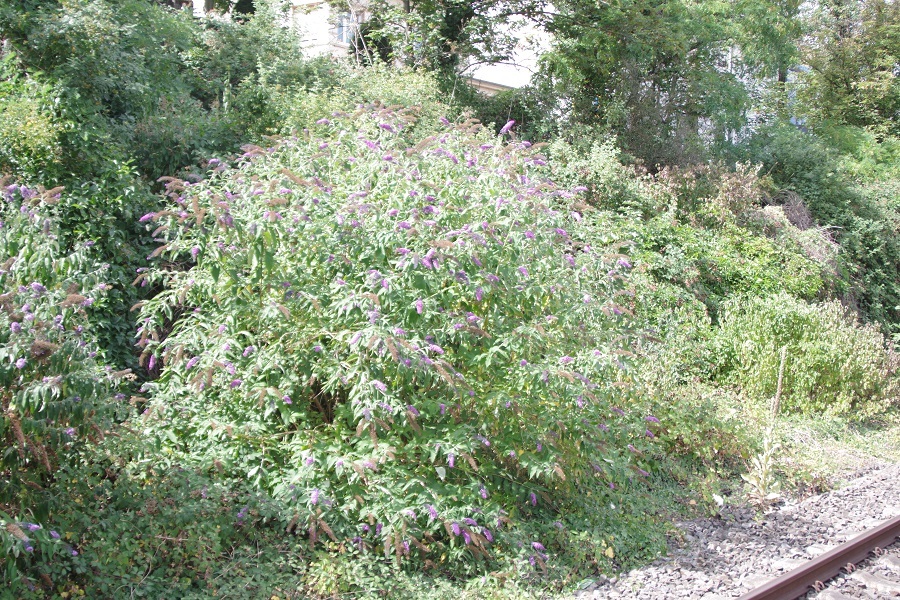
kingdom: Plantae
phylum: Tracheophyta
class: Magnoliopsida
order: Lamiales
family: Scrophulariaceae
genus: Buddleja
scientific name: Buddleja davidii
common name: Butterfly-bush
